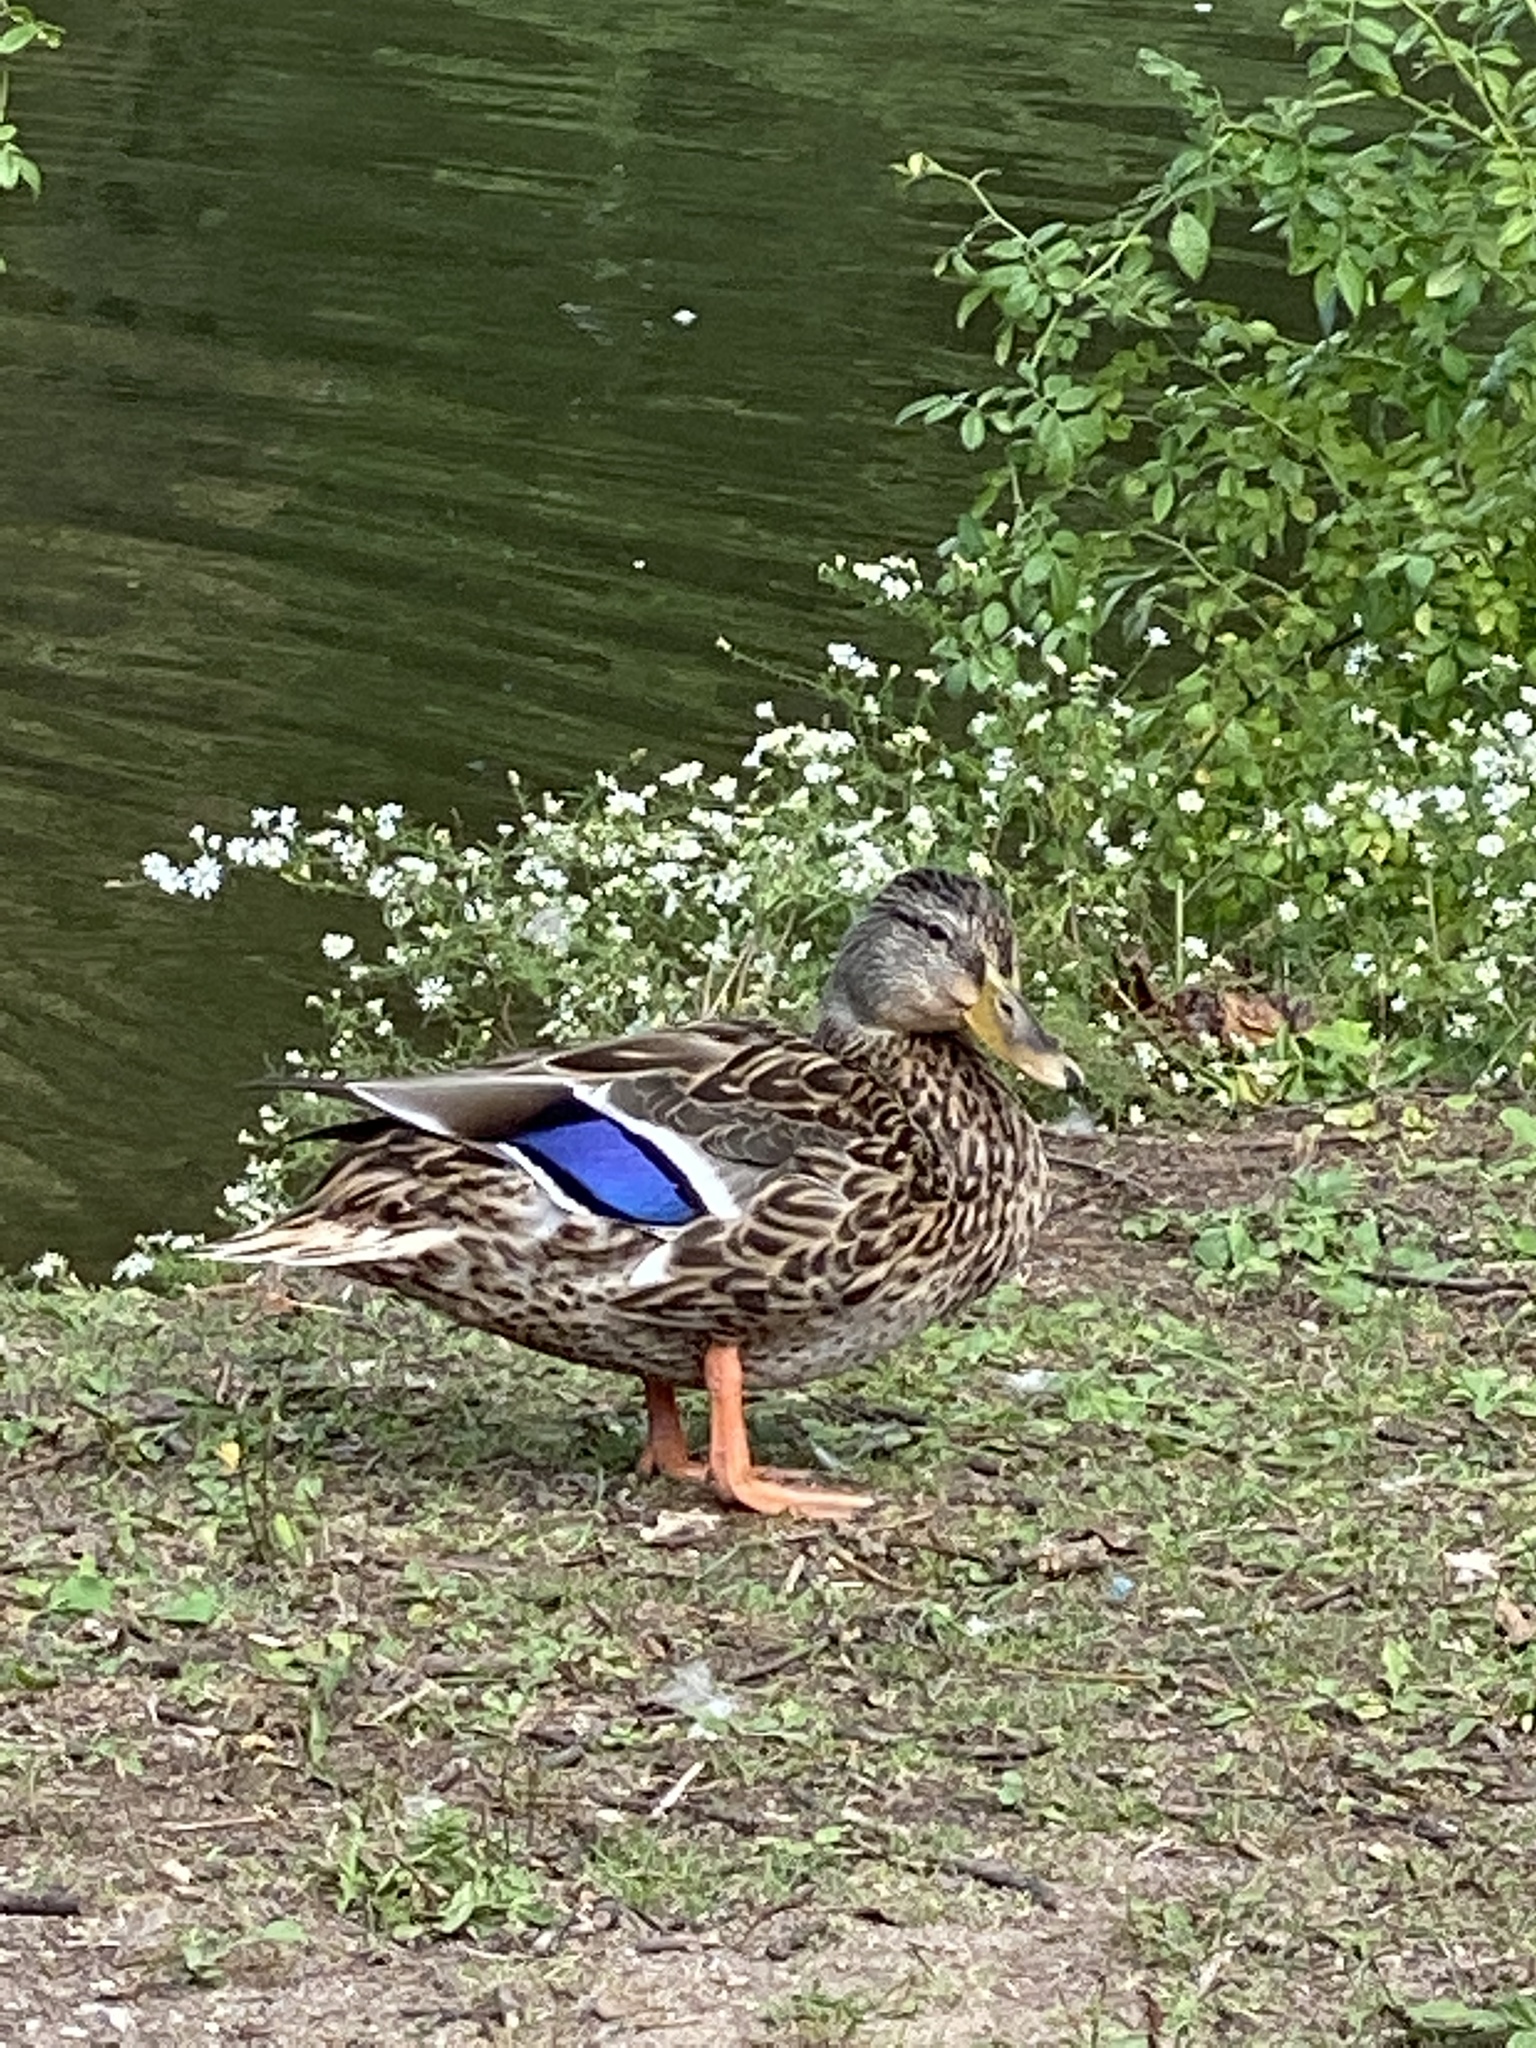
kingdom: Animalia
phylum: Chordata
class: Aves
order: Anseriformes
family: Anatidae
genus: Anas
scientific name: Anas platyrhynchos
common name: Mallard
